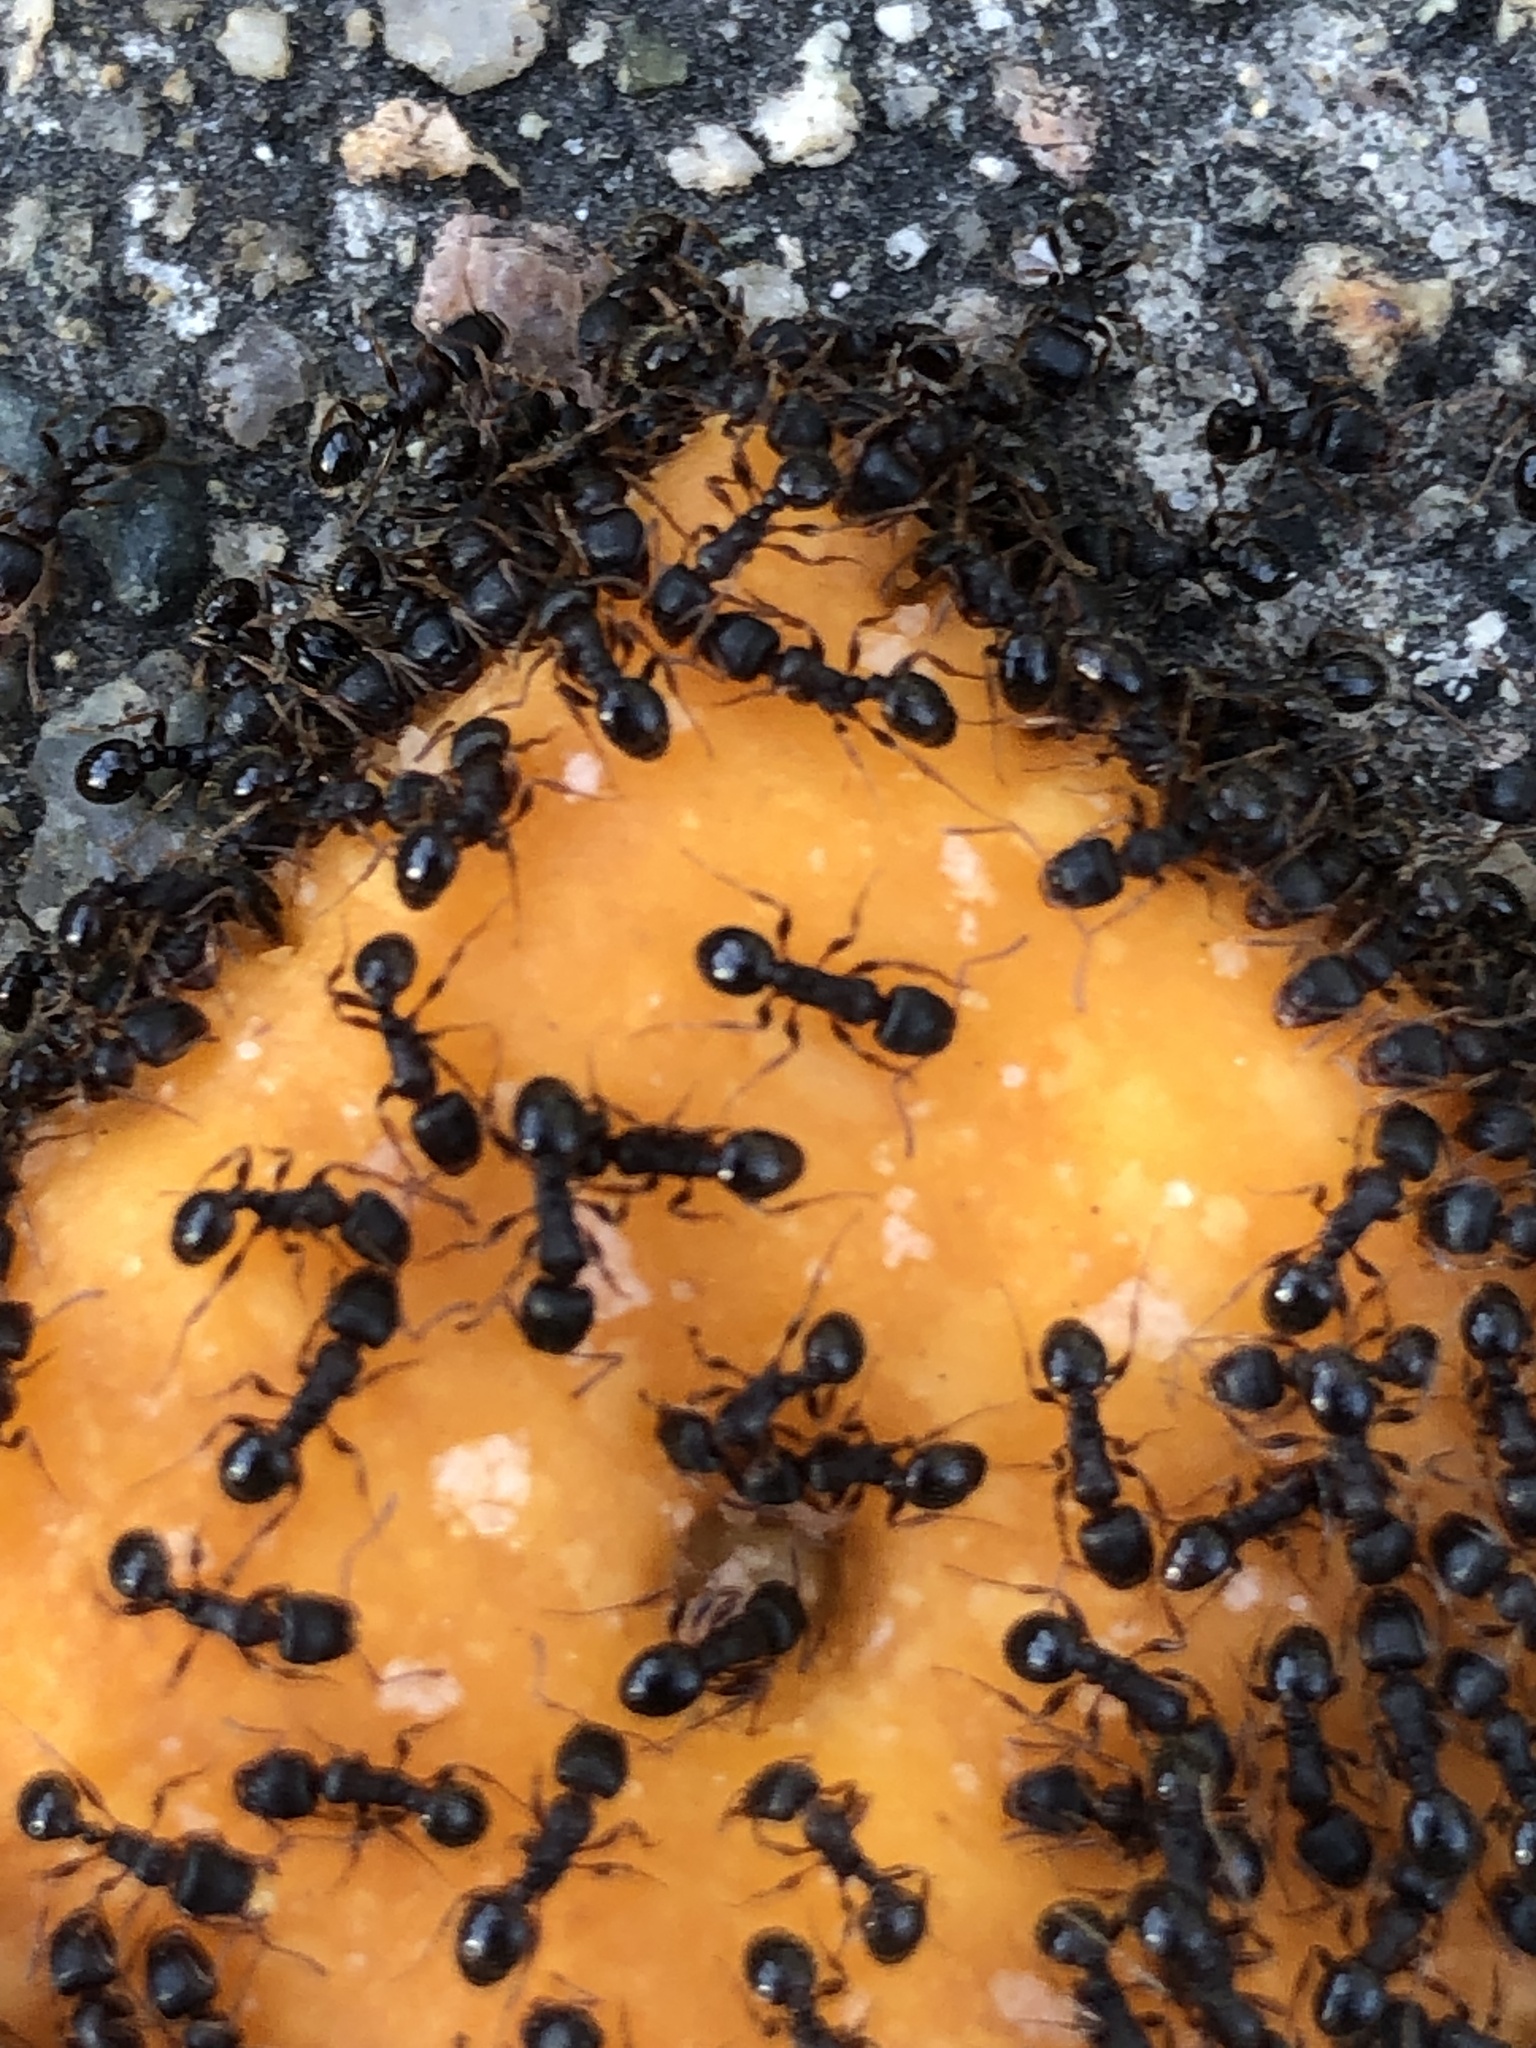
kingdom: Animalia
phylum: Arthropoda
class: Insecta
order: Hymenoptera
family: Formicidae
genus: Tetramorium
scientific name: Tetramorium immigrans
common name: Pavement ant
